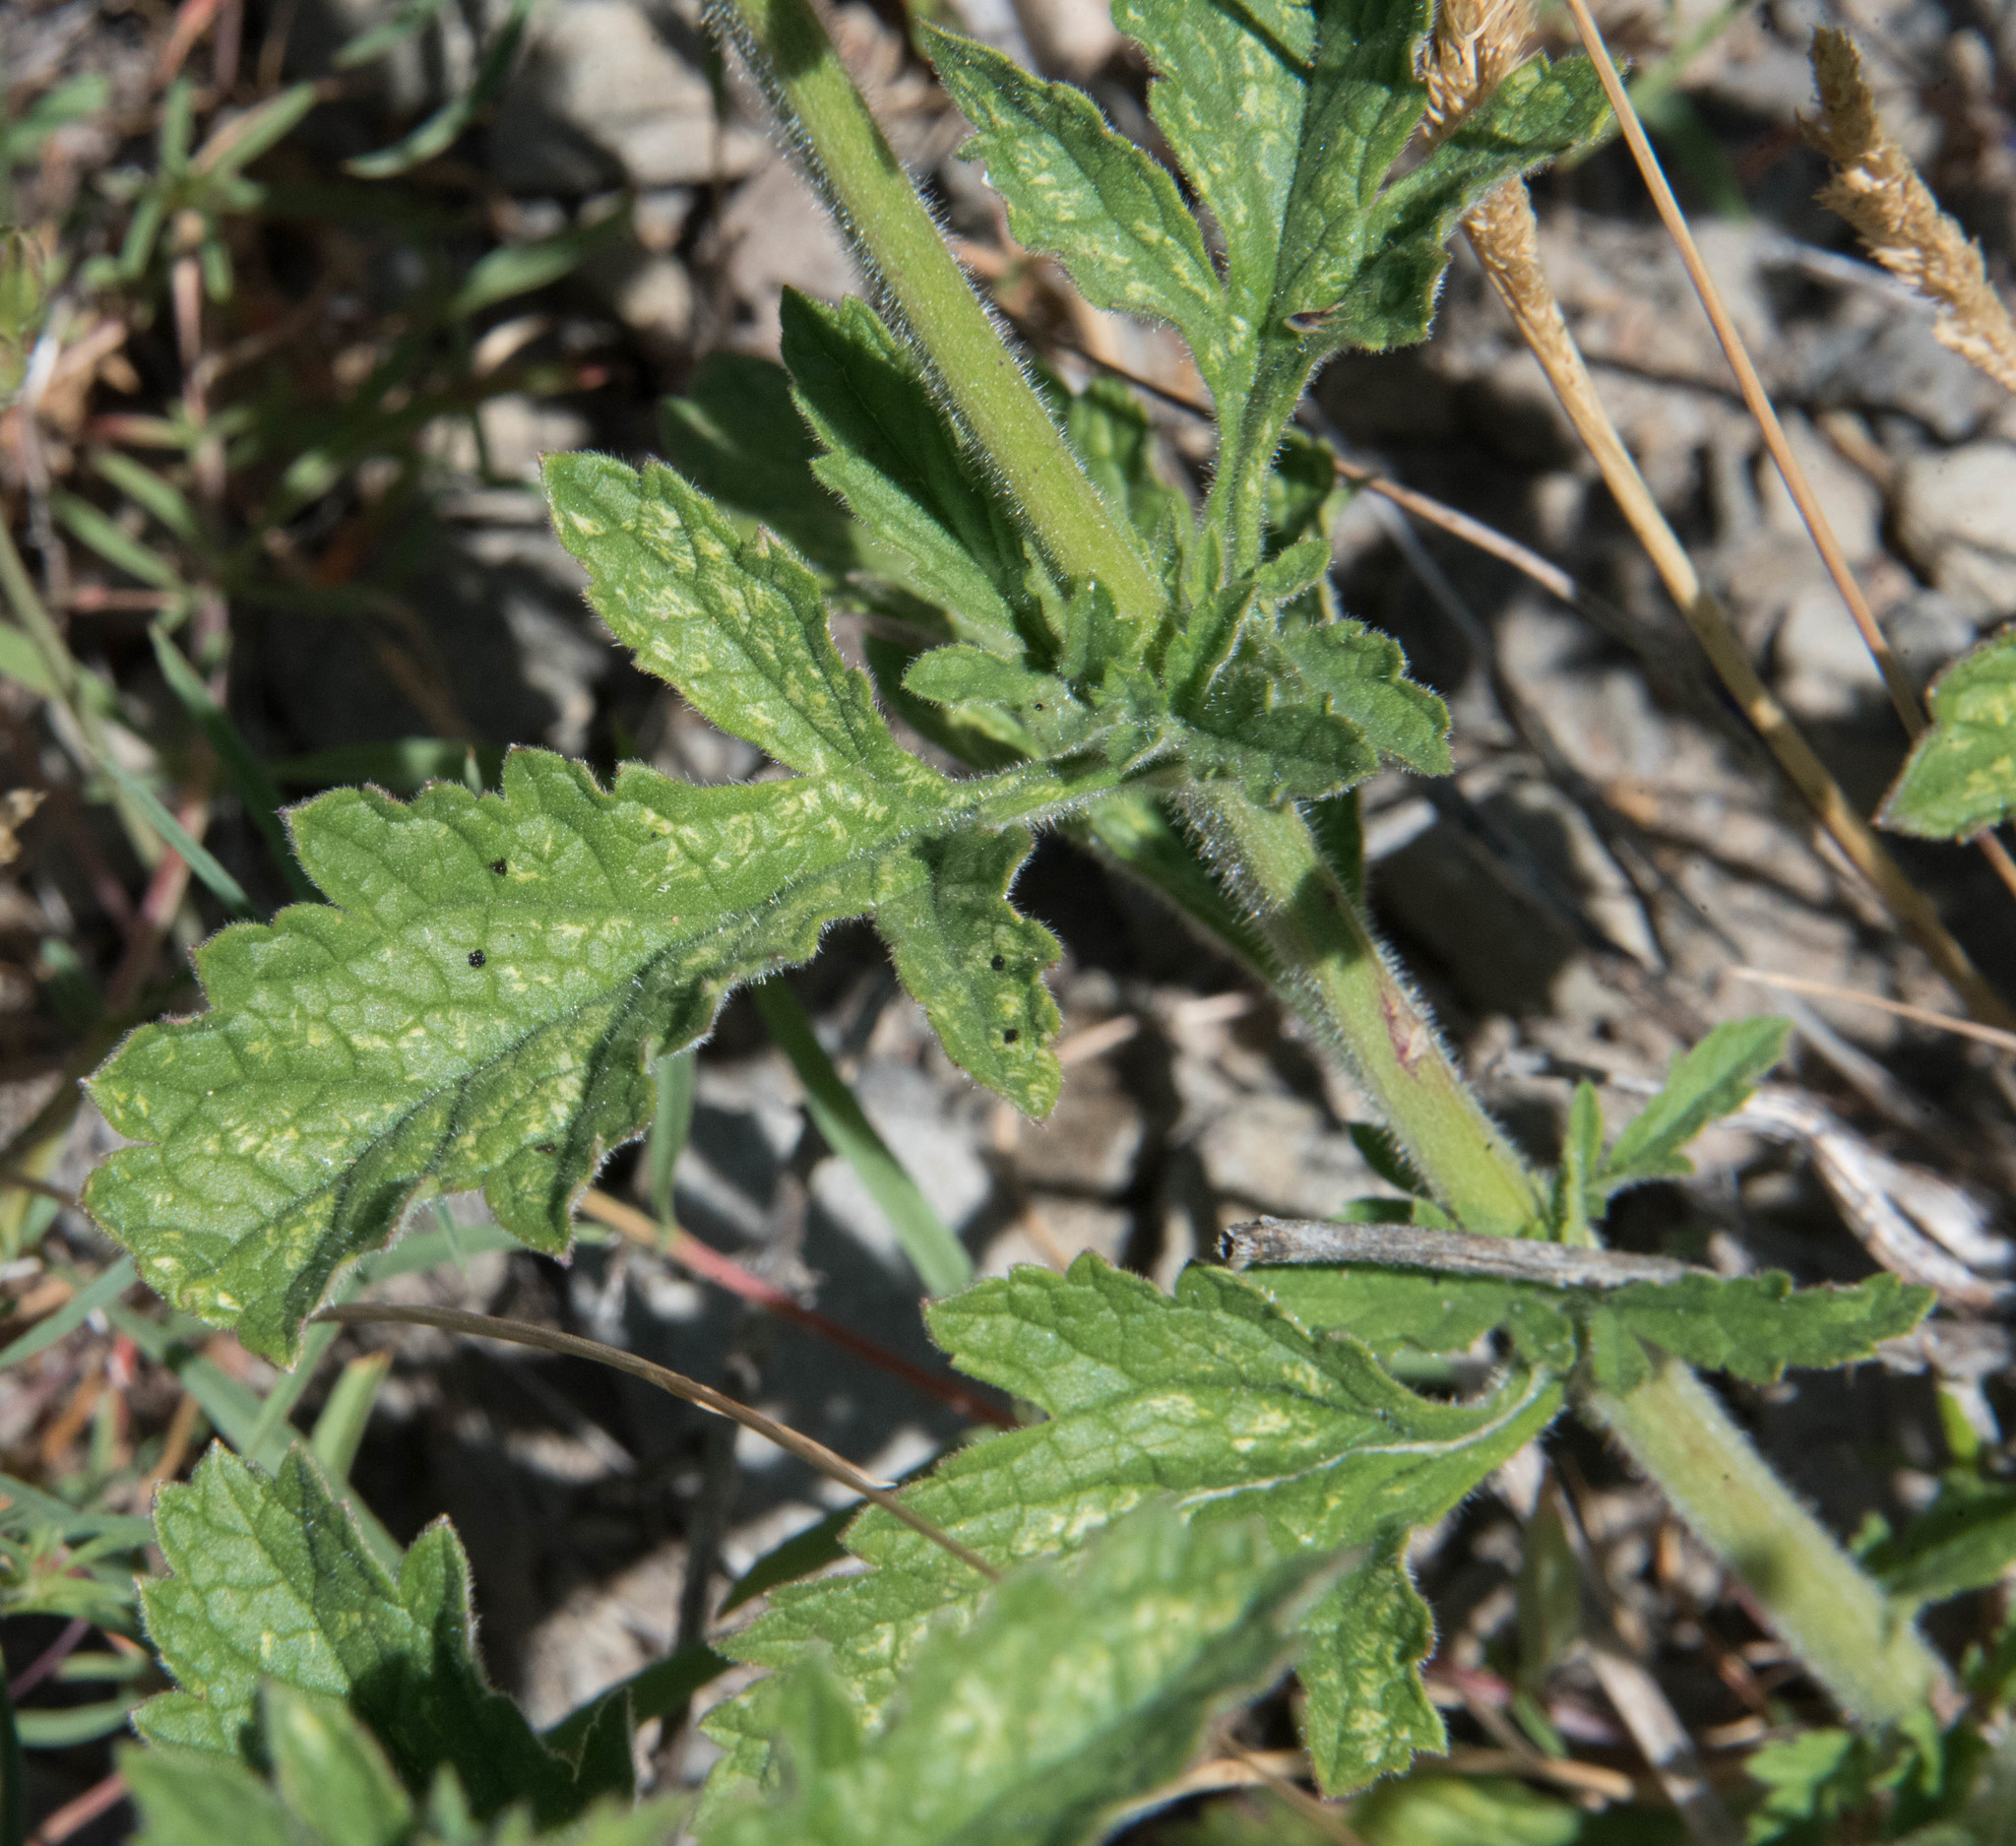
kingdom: Plantae
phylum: Tracheophyta
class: Magnoliopsida
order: Lamiales
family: Verbenaceae
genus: Verbena
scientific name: Verbena lasiostachys
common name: Vervain
